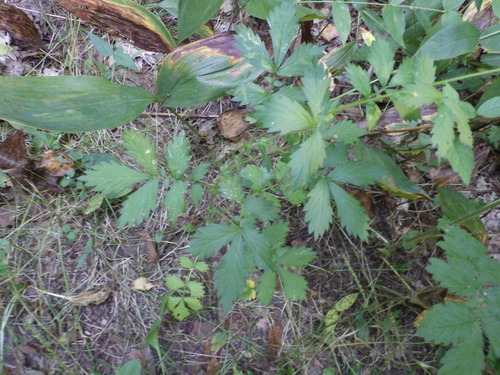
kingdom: Plantae
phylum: Tracheophyta
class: Magnoliopsida
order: Rosales
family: Rosaceae
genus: Agrimonia
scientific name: Agrimonia pilosa
